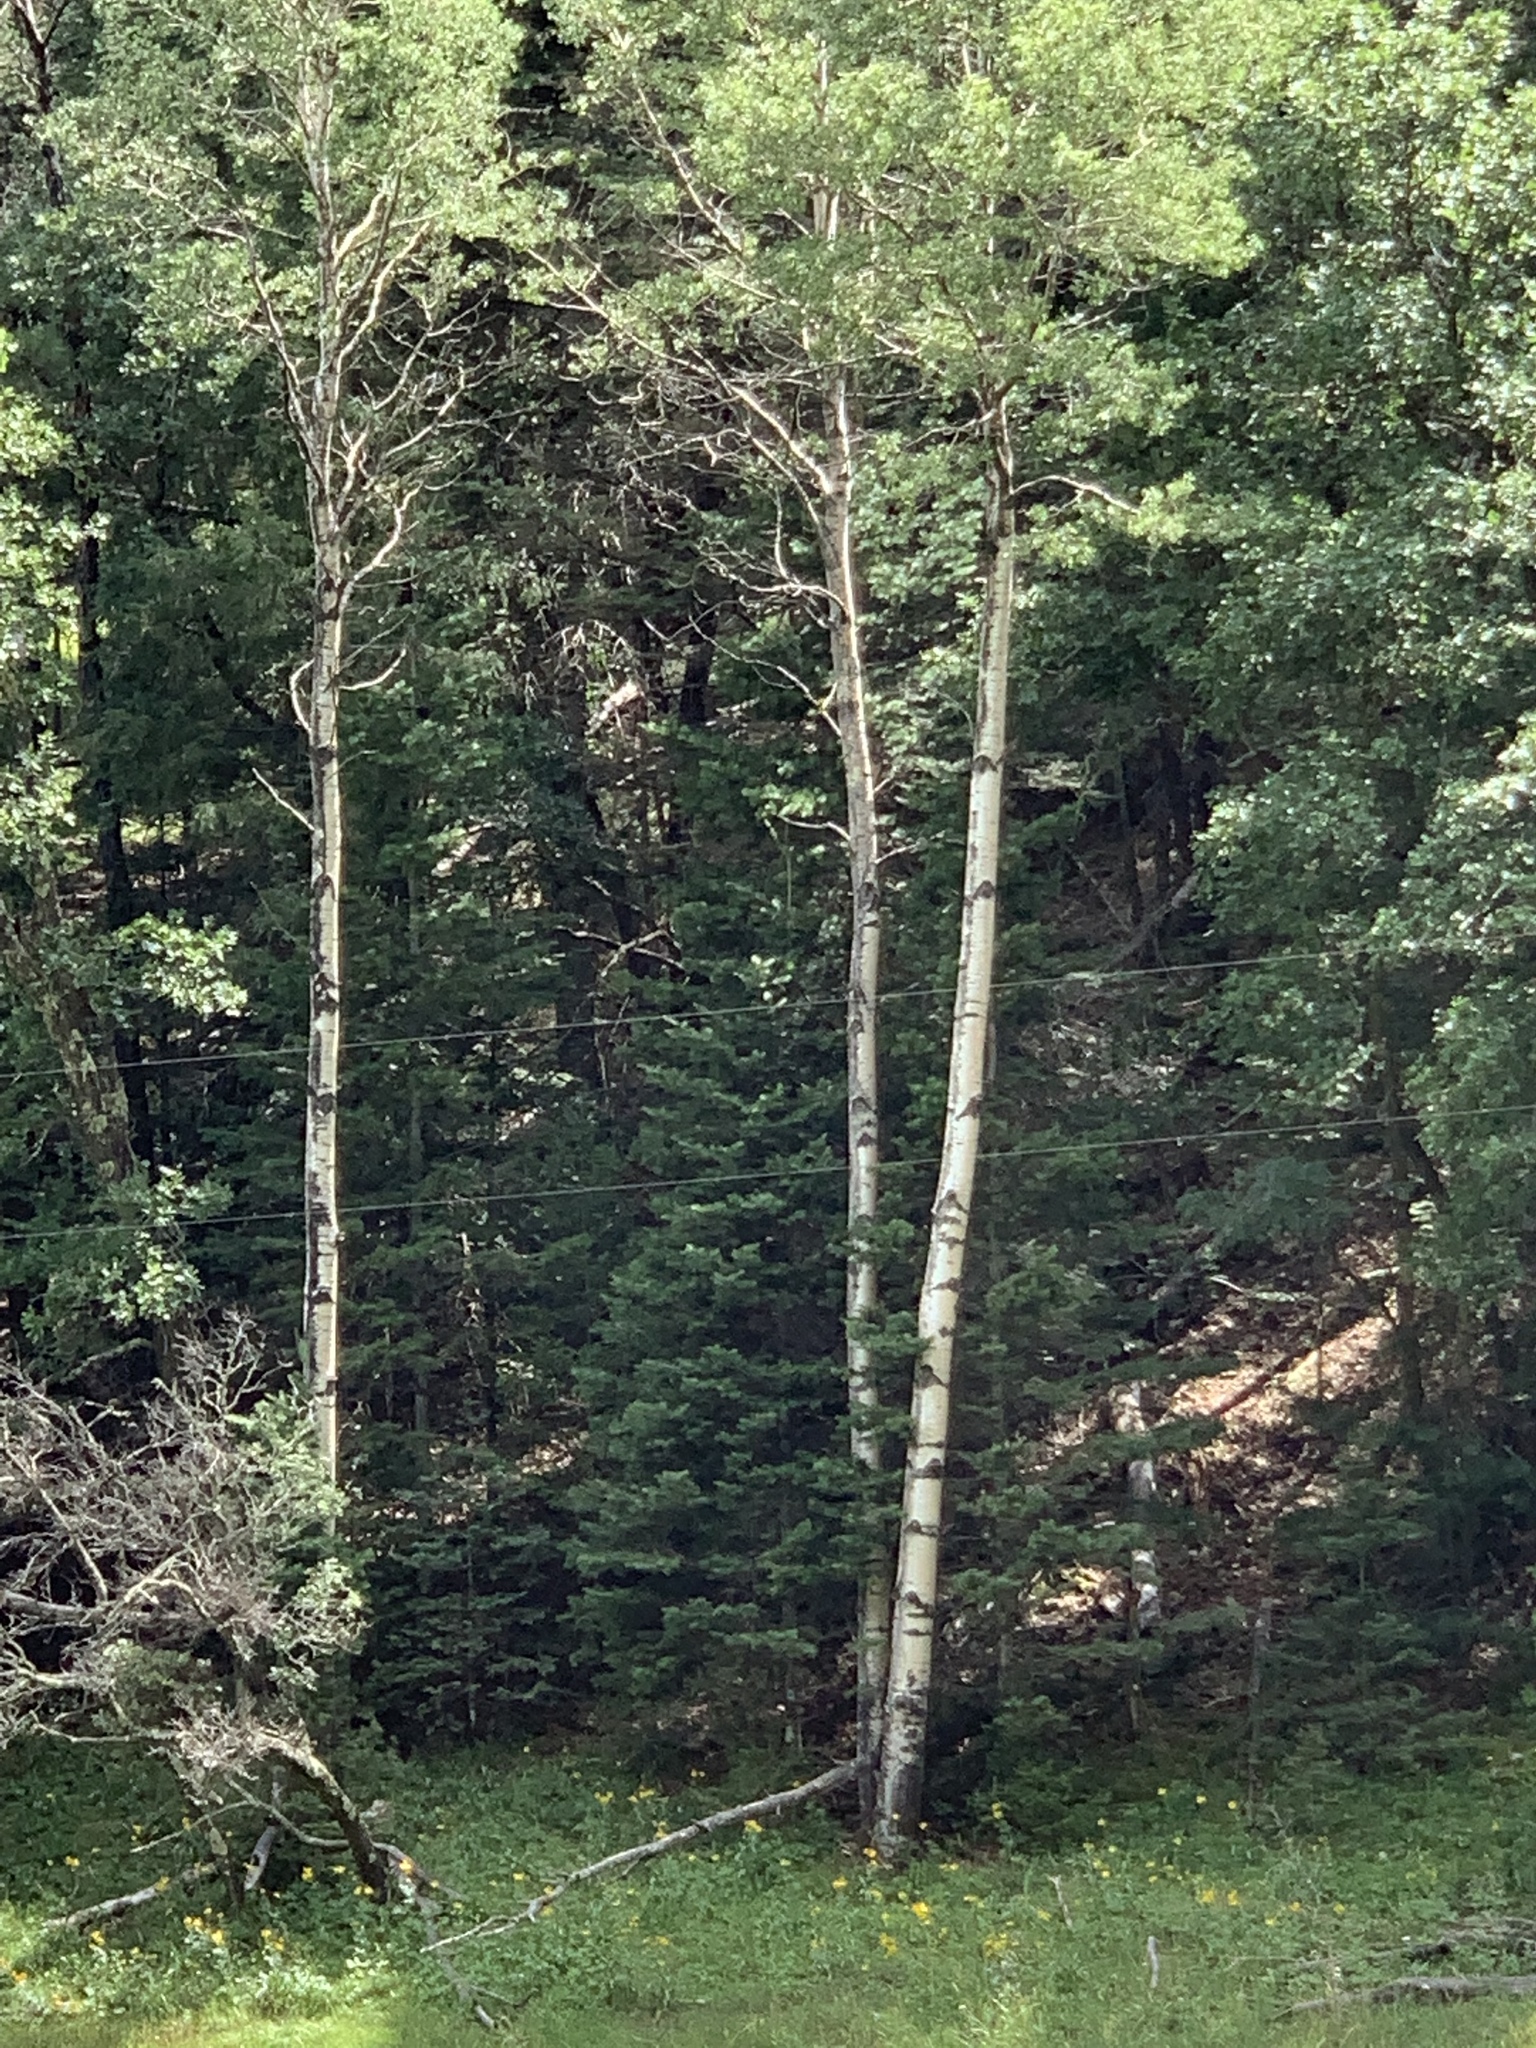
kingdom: Plantae
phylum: Tracheophyta
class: Magnoliopsida
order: Malpighiales
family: Salicaceae
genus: Populus
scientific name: Populus tremuloides
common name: Quaking aspen
